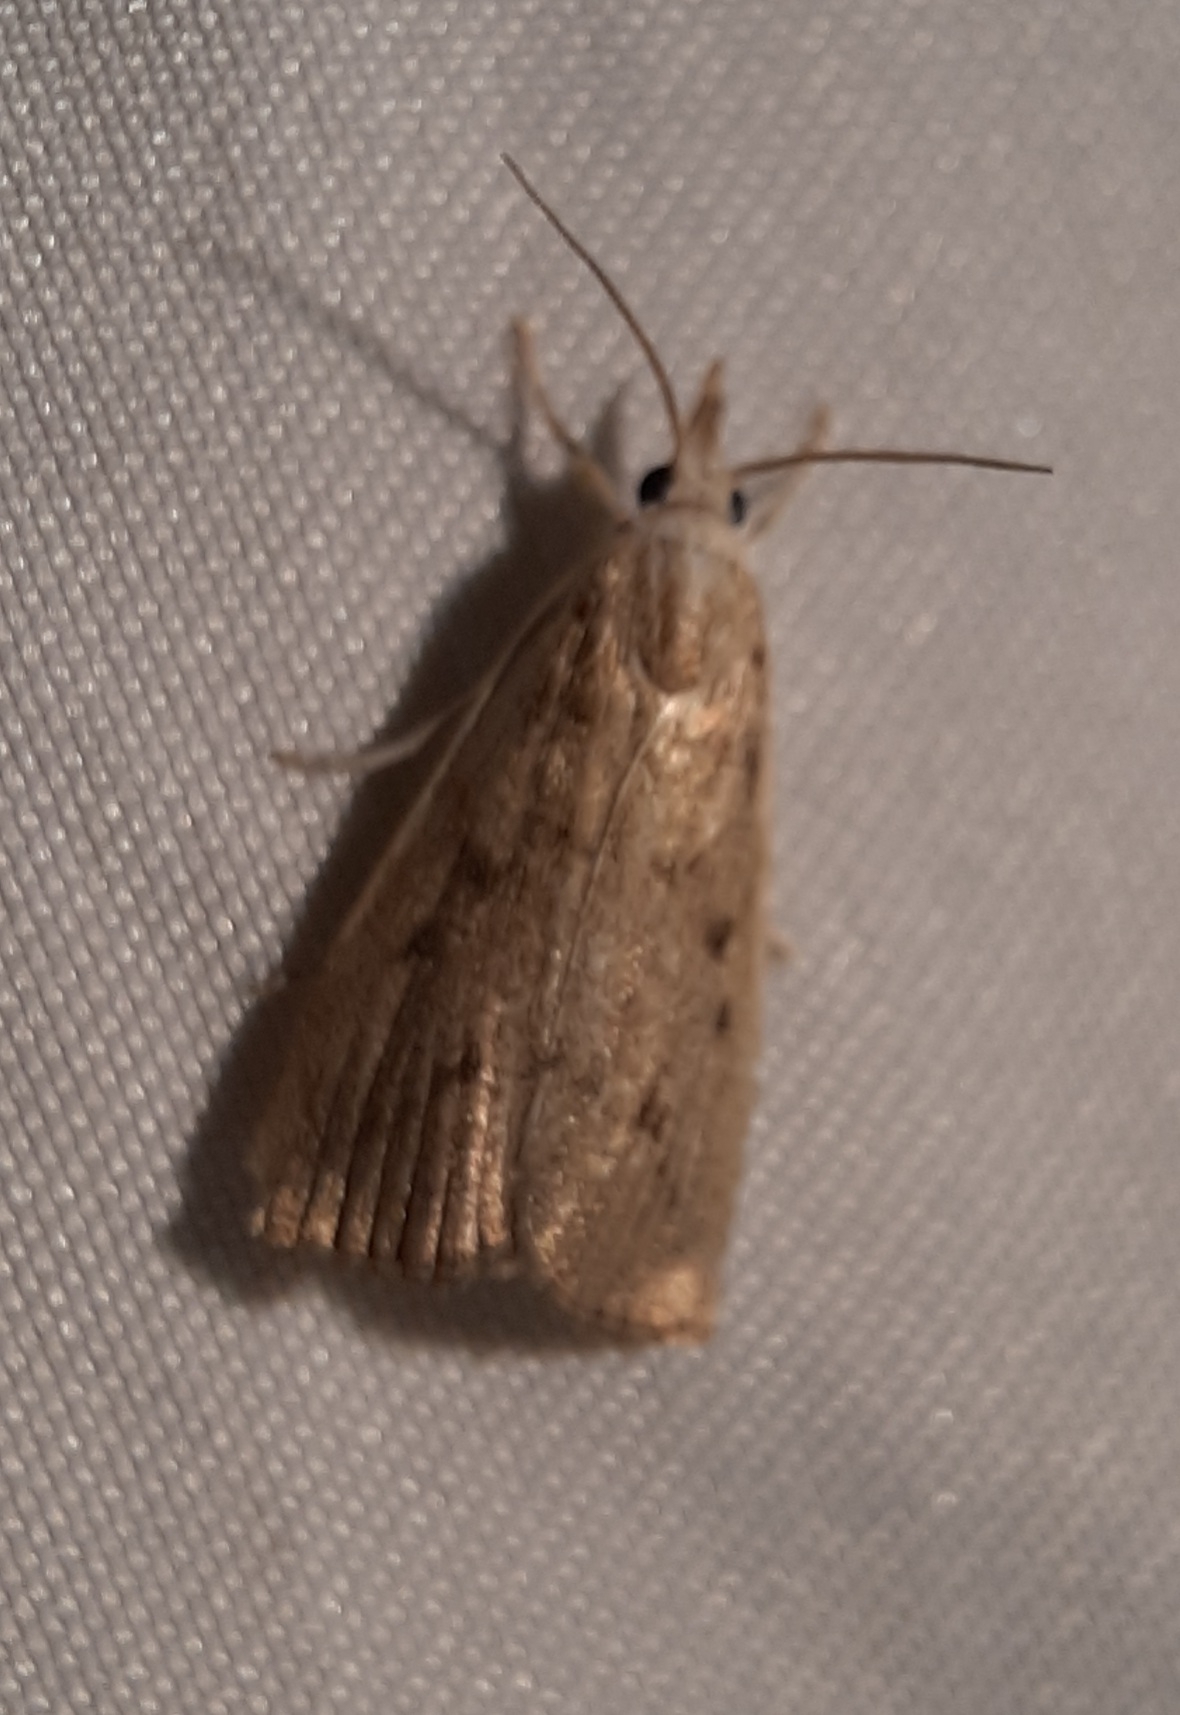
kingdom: Animalia
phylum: Arthropoda
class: Insecta
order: Lepidoptera
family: Crambidae
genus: Calamotropha
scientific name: Calamotropha paludella
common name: Bulrush veneer
